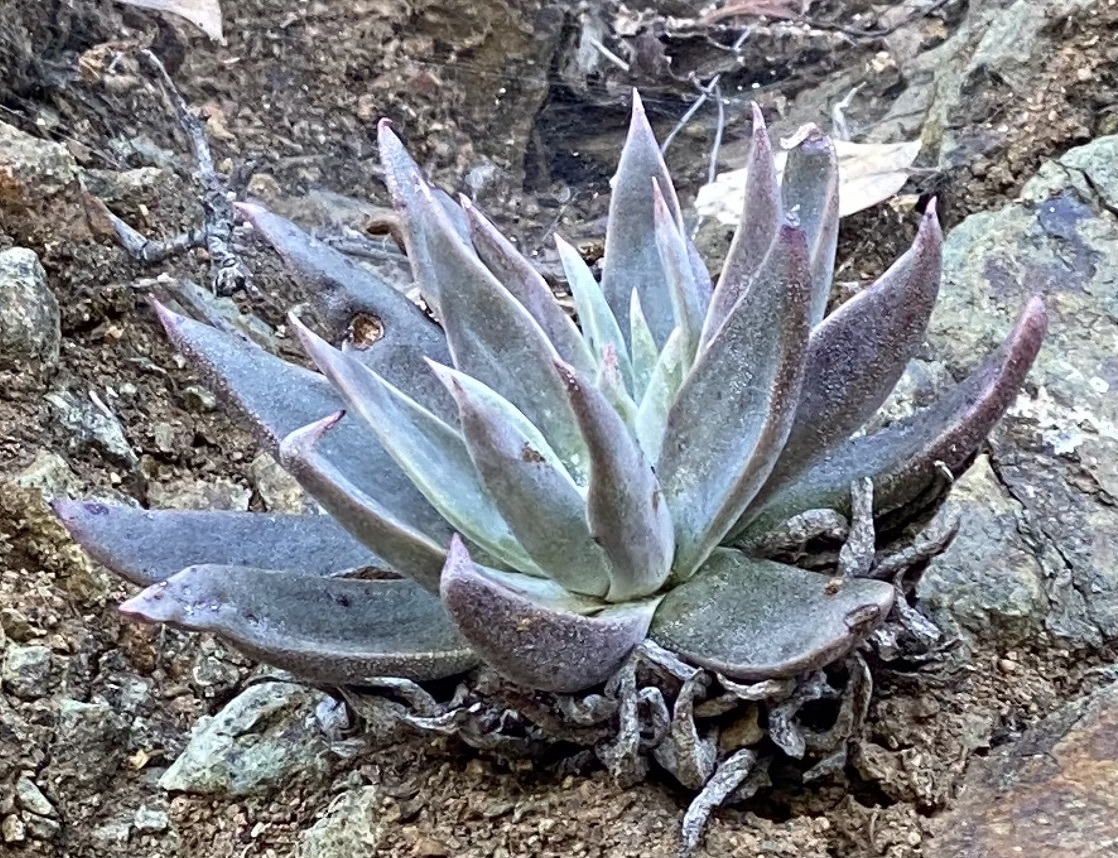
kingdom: Plantae
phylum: Tracheophyta
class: Magnoliopsida
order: Saxifragales
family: Crassulaceae
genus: Dudleya
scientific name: Dudleya abramsii
